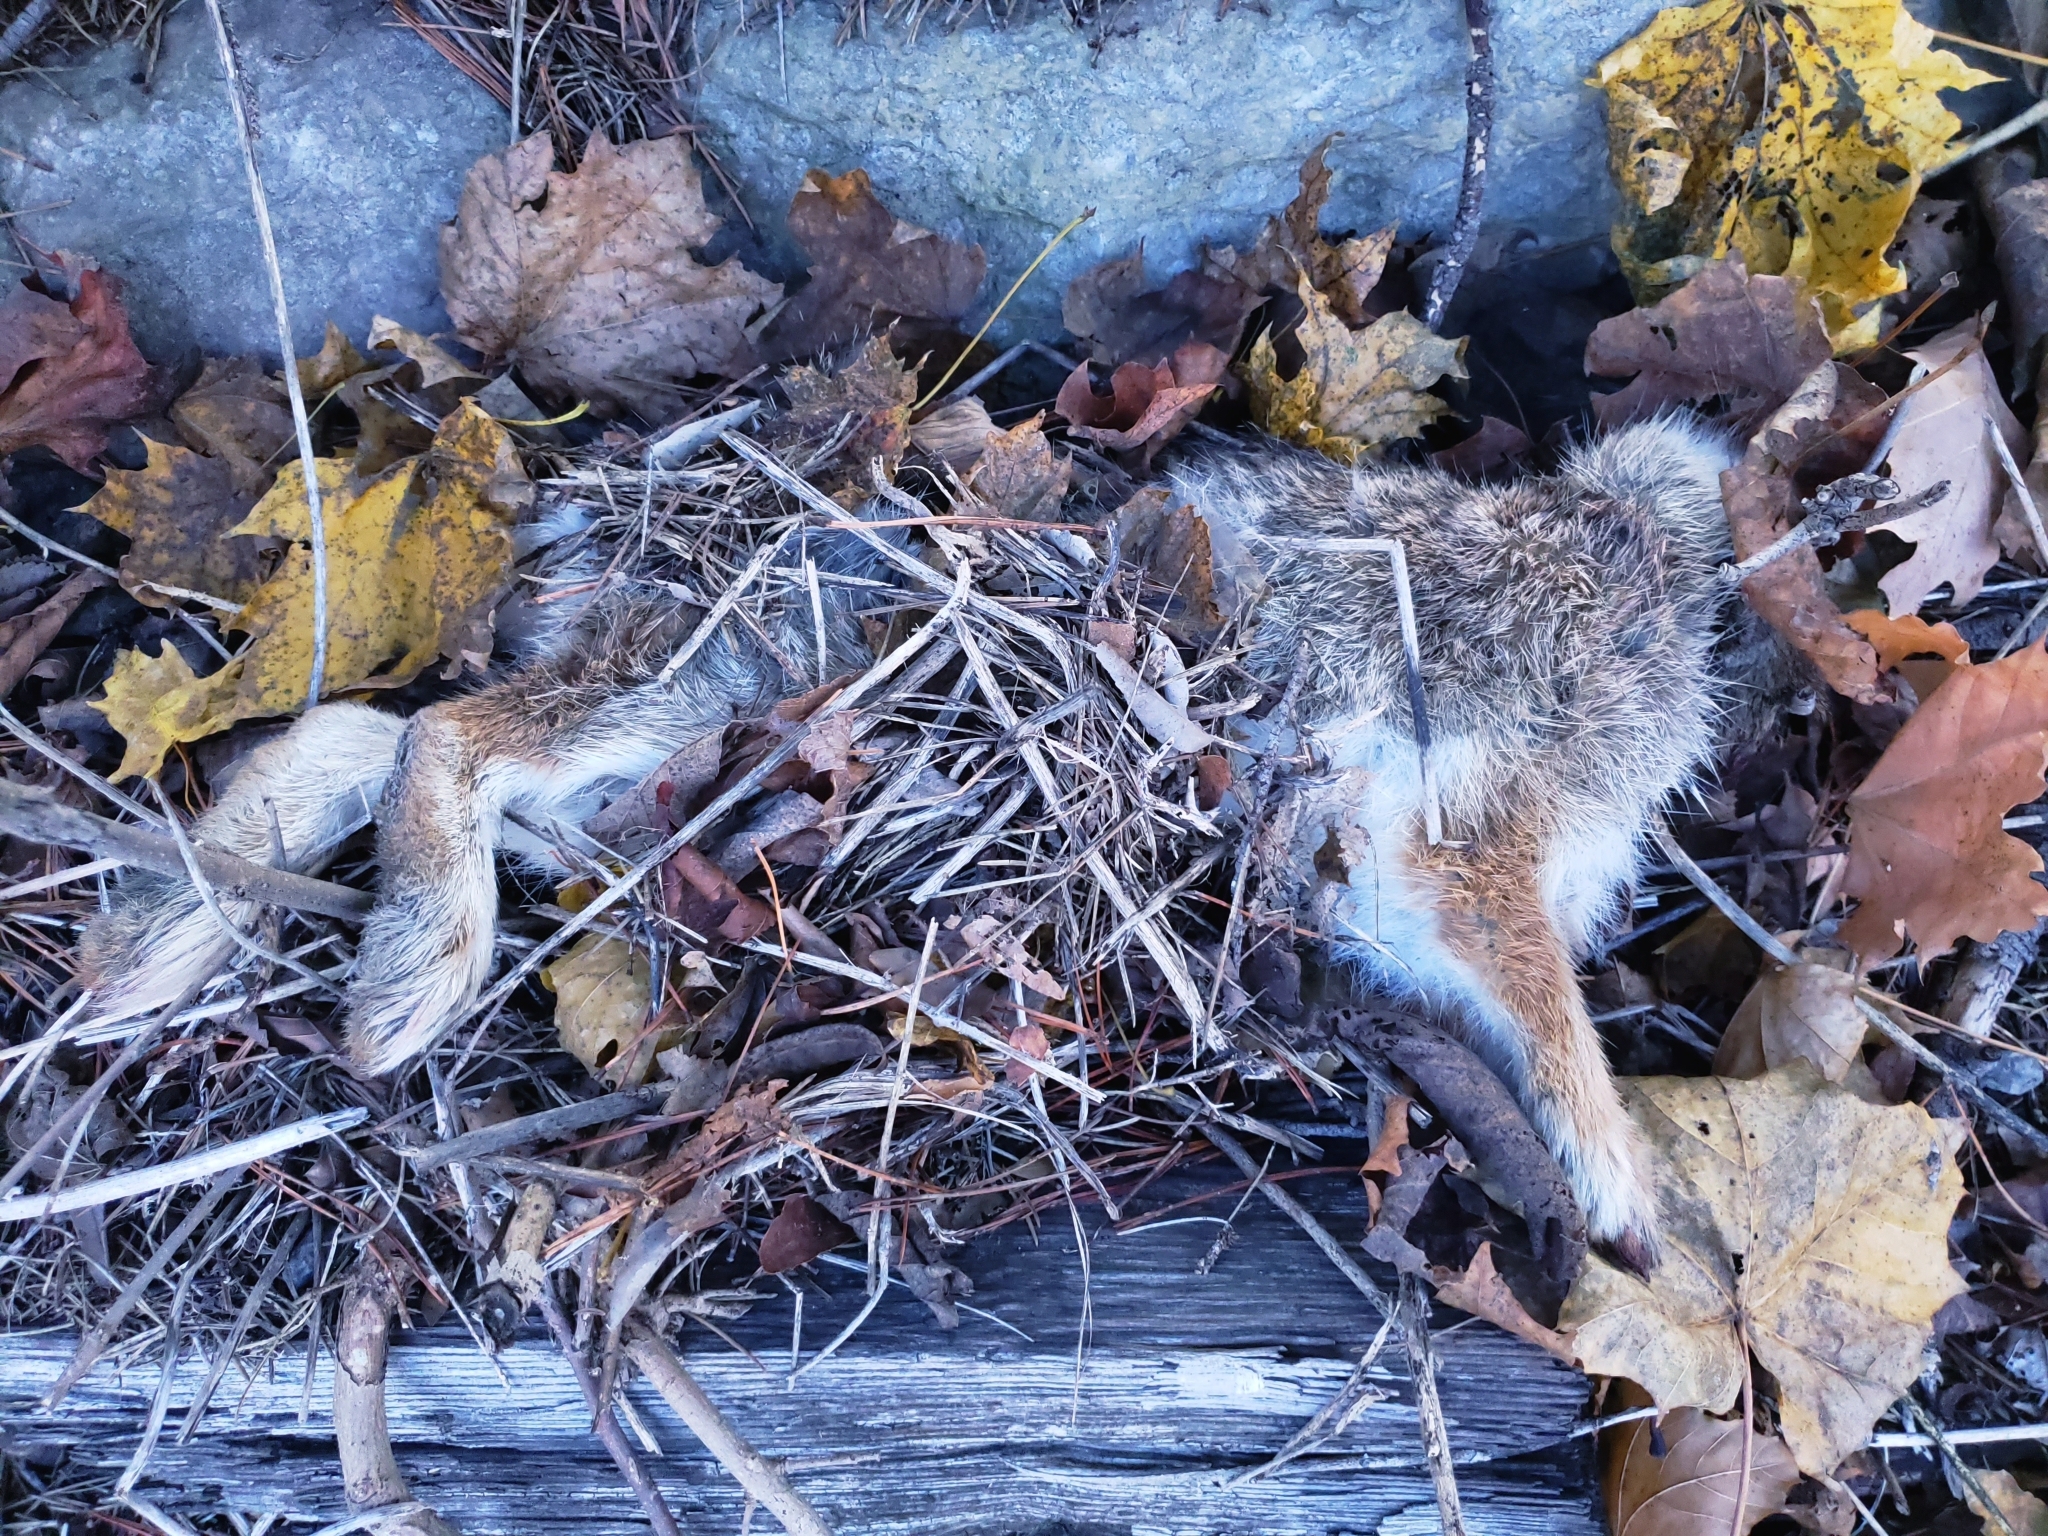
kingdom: Animalia
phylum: Chordata
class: Mammalia
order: Lagomorpha
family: Leporidae
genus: Sylvilagus
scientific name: Sylvilagus floridanus
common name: Eastern cottontail
